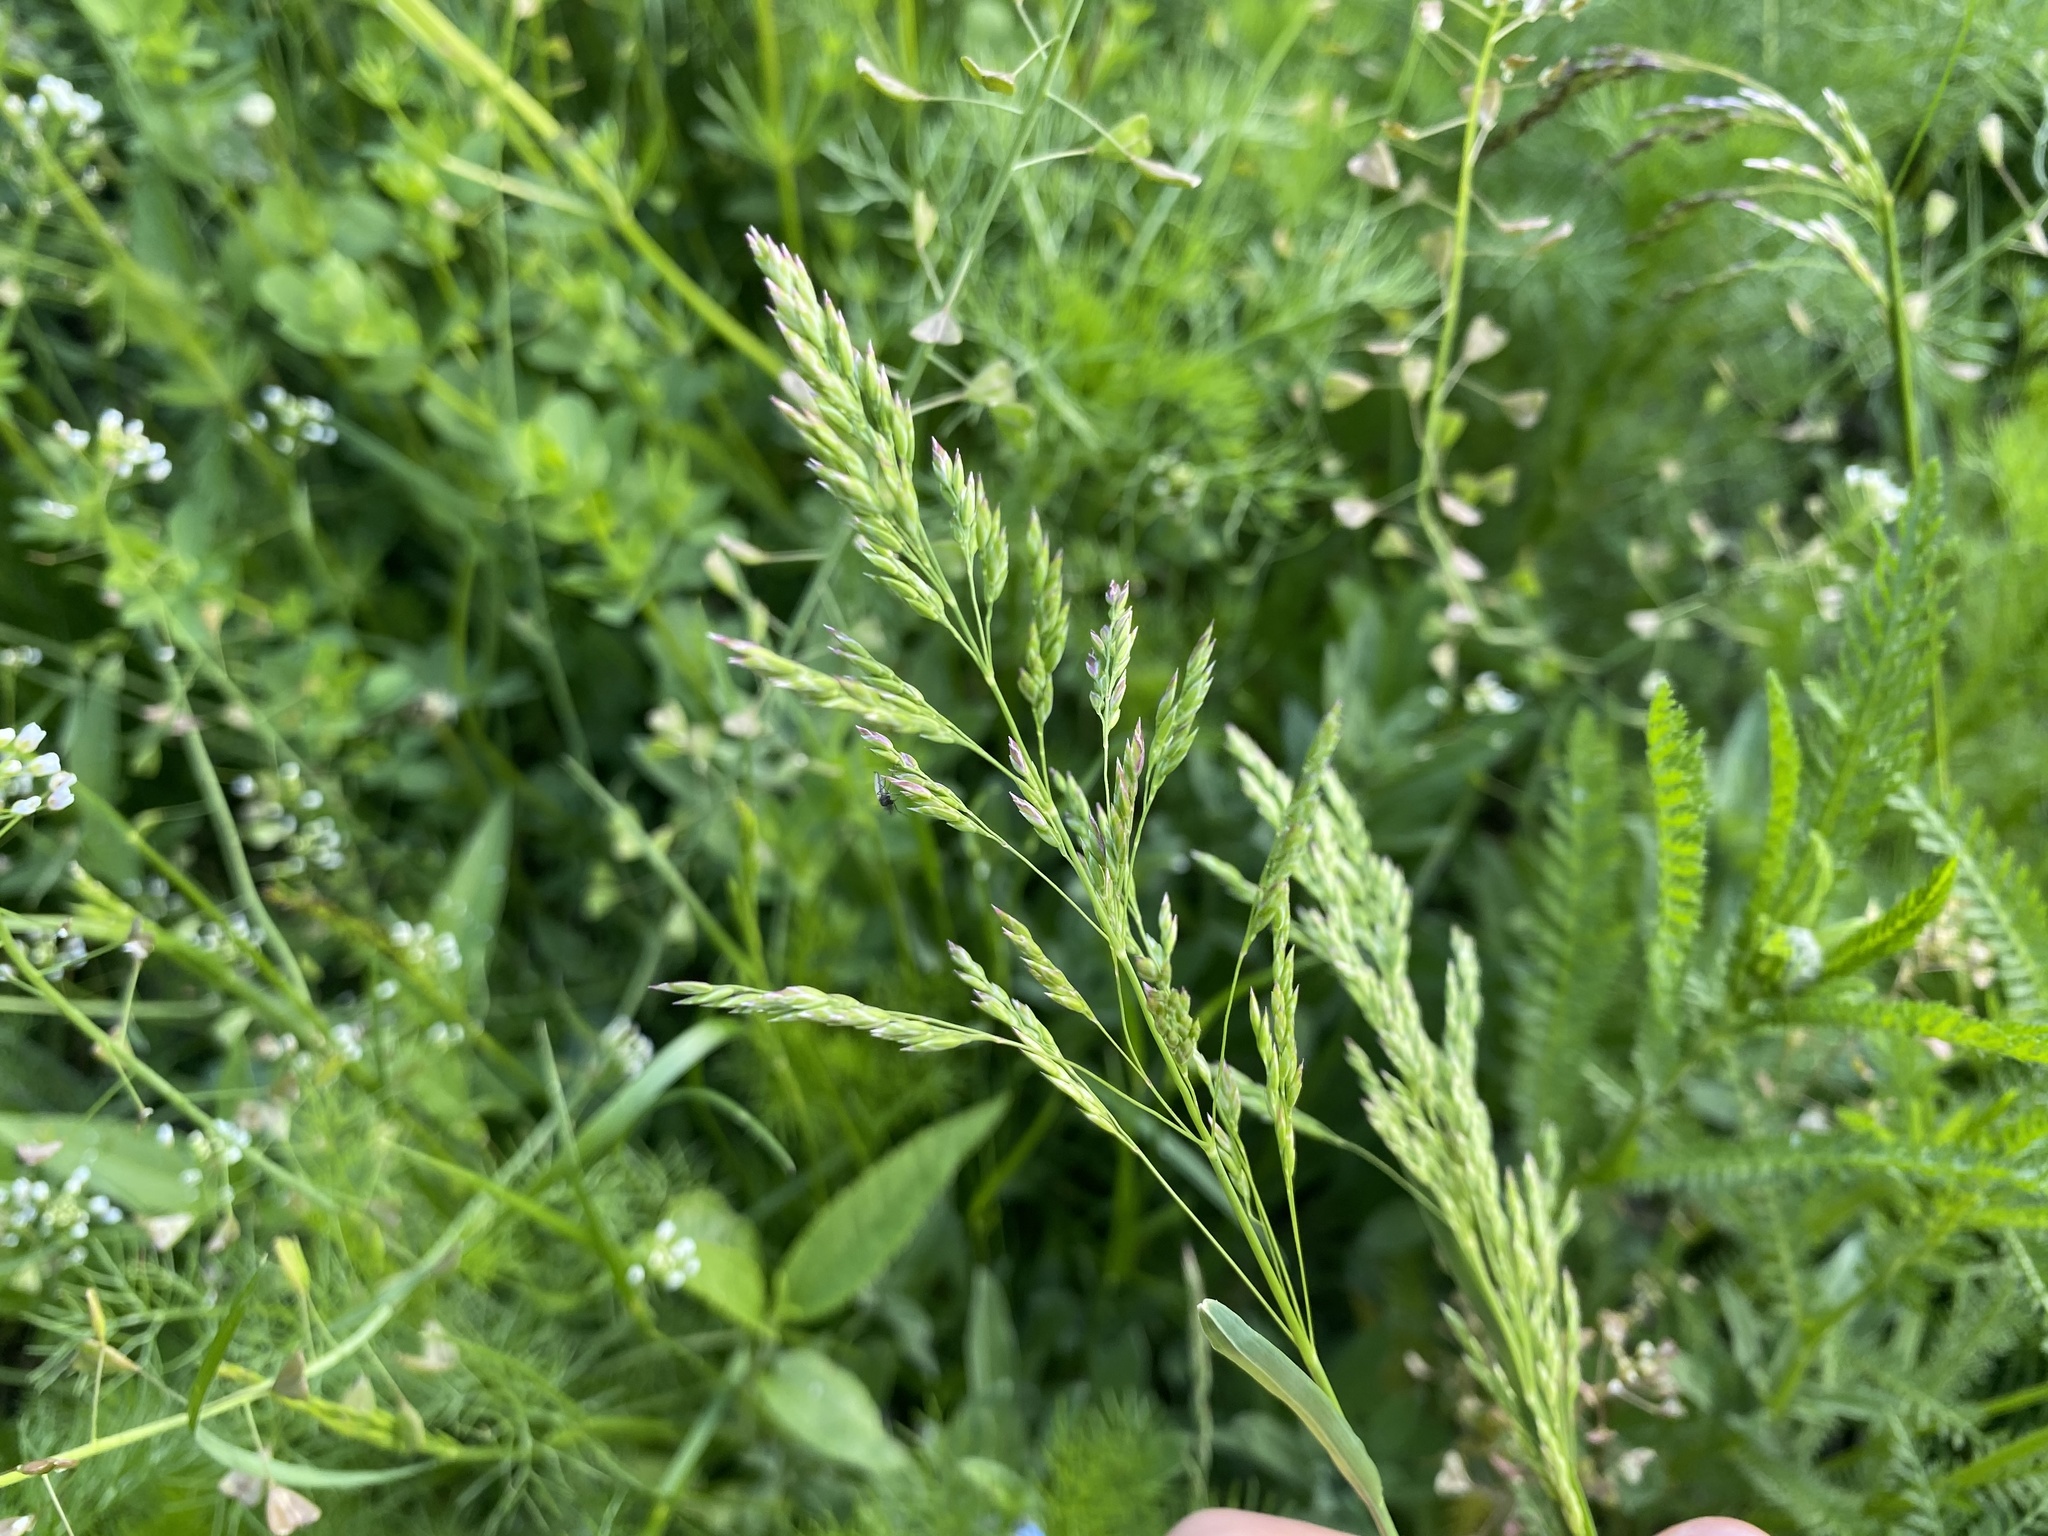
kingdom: Plantae
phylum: Tracheophyta
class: Liliopsida
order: Poales
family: Poaceae
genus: Poa
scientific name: Poa pratensis
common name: Kentucky bluegrass
